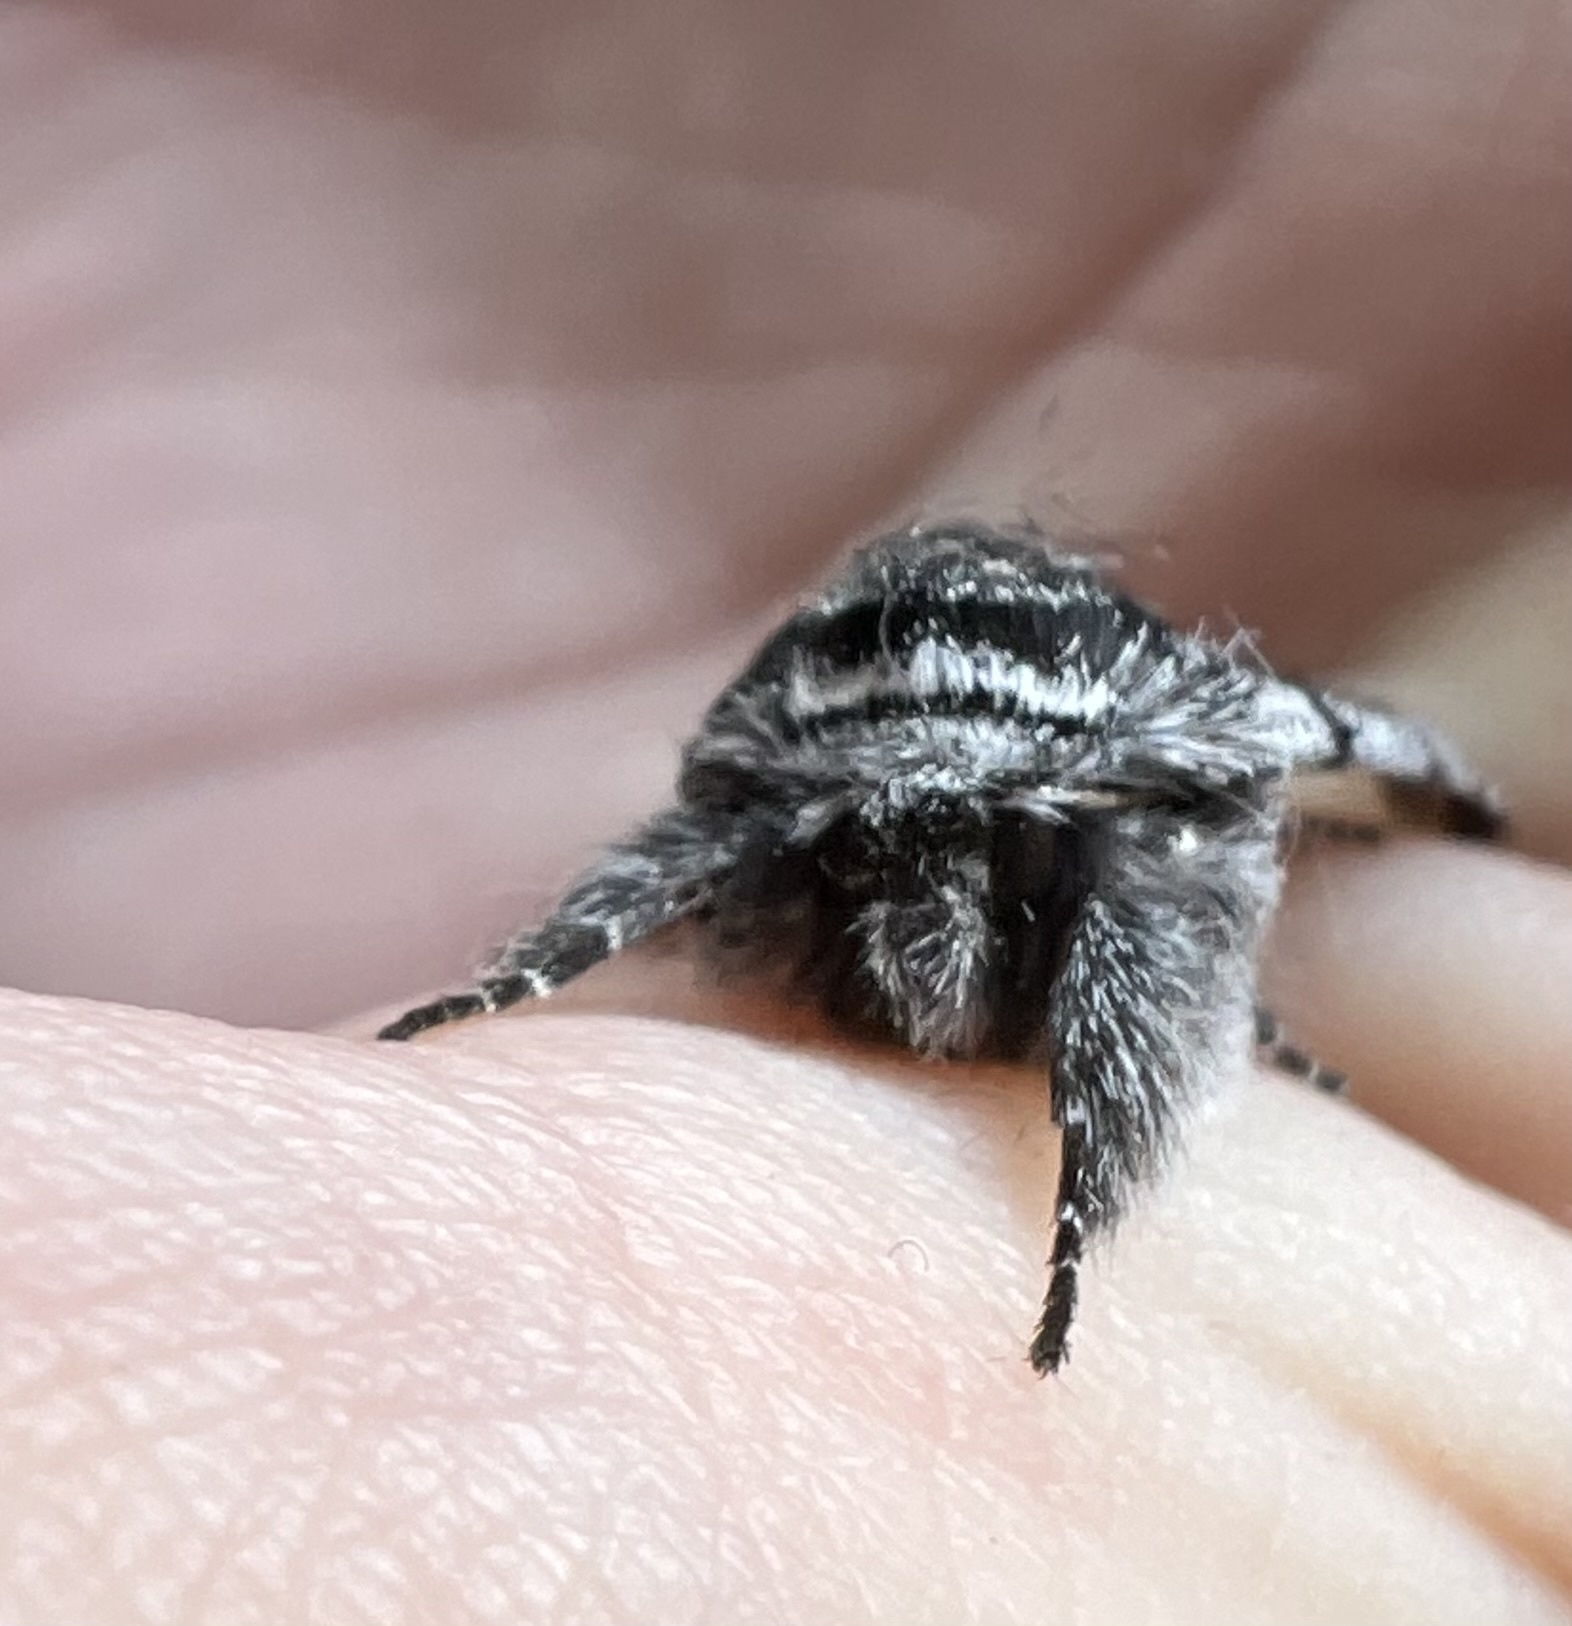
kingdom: Animalia
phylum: Arthropoda
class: Insecta
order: Lepidoptera
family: Noctuidae
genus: Pleromelloida
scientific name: Pleromelloida conserta
